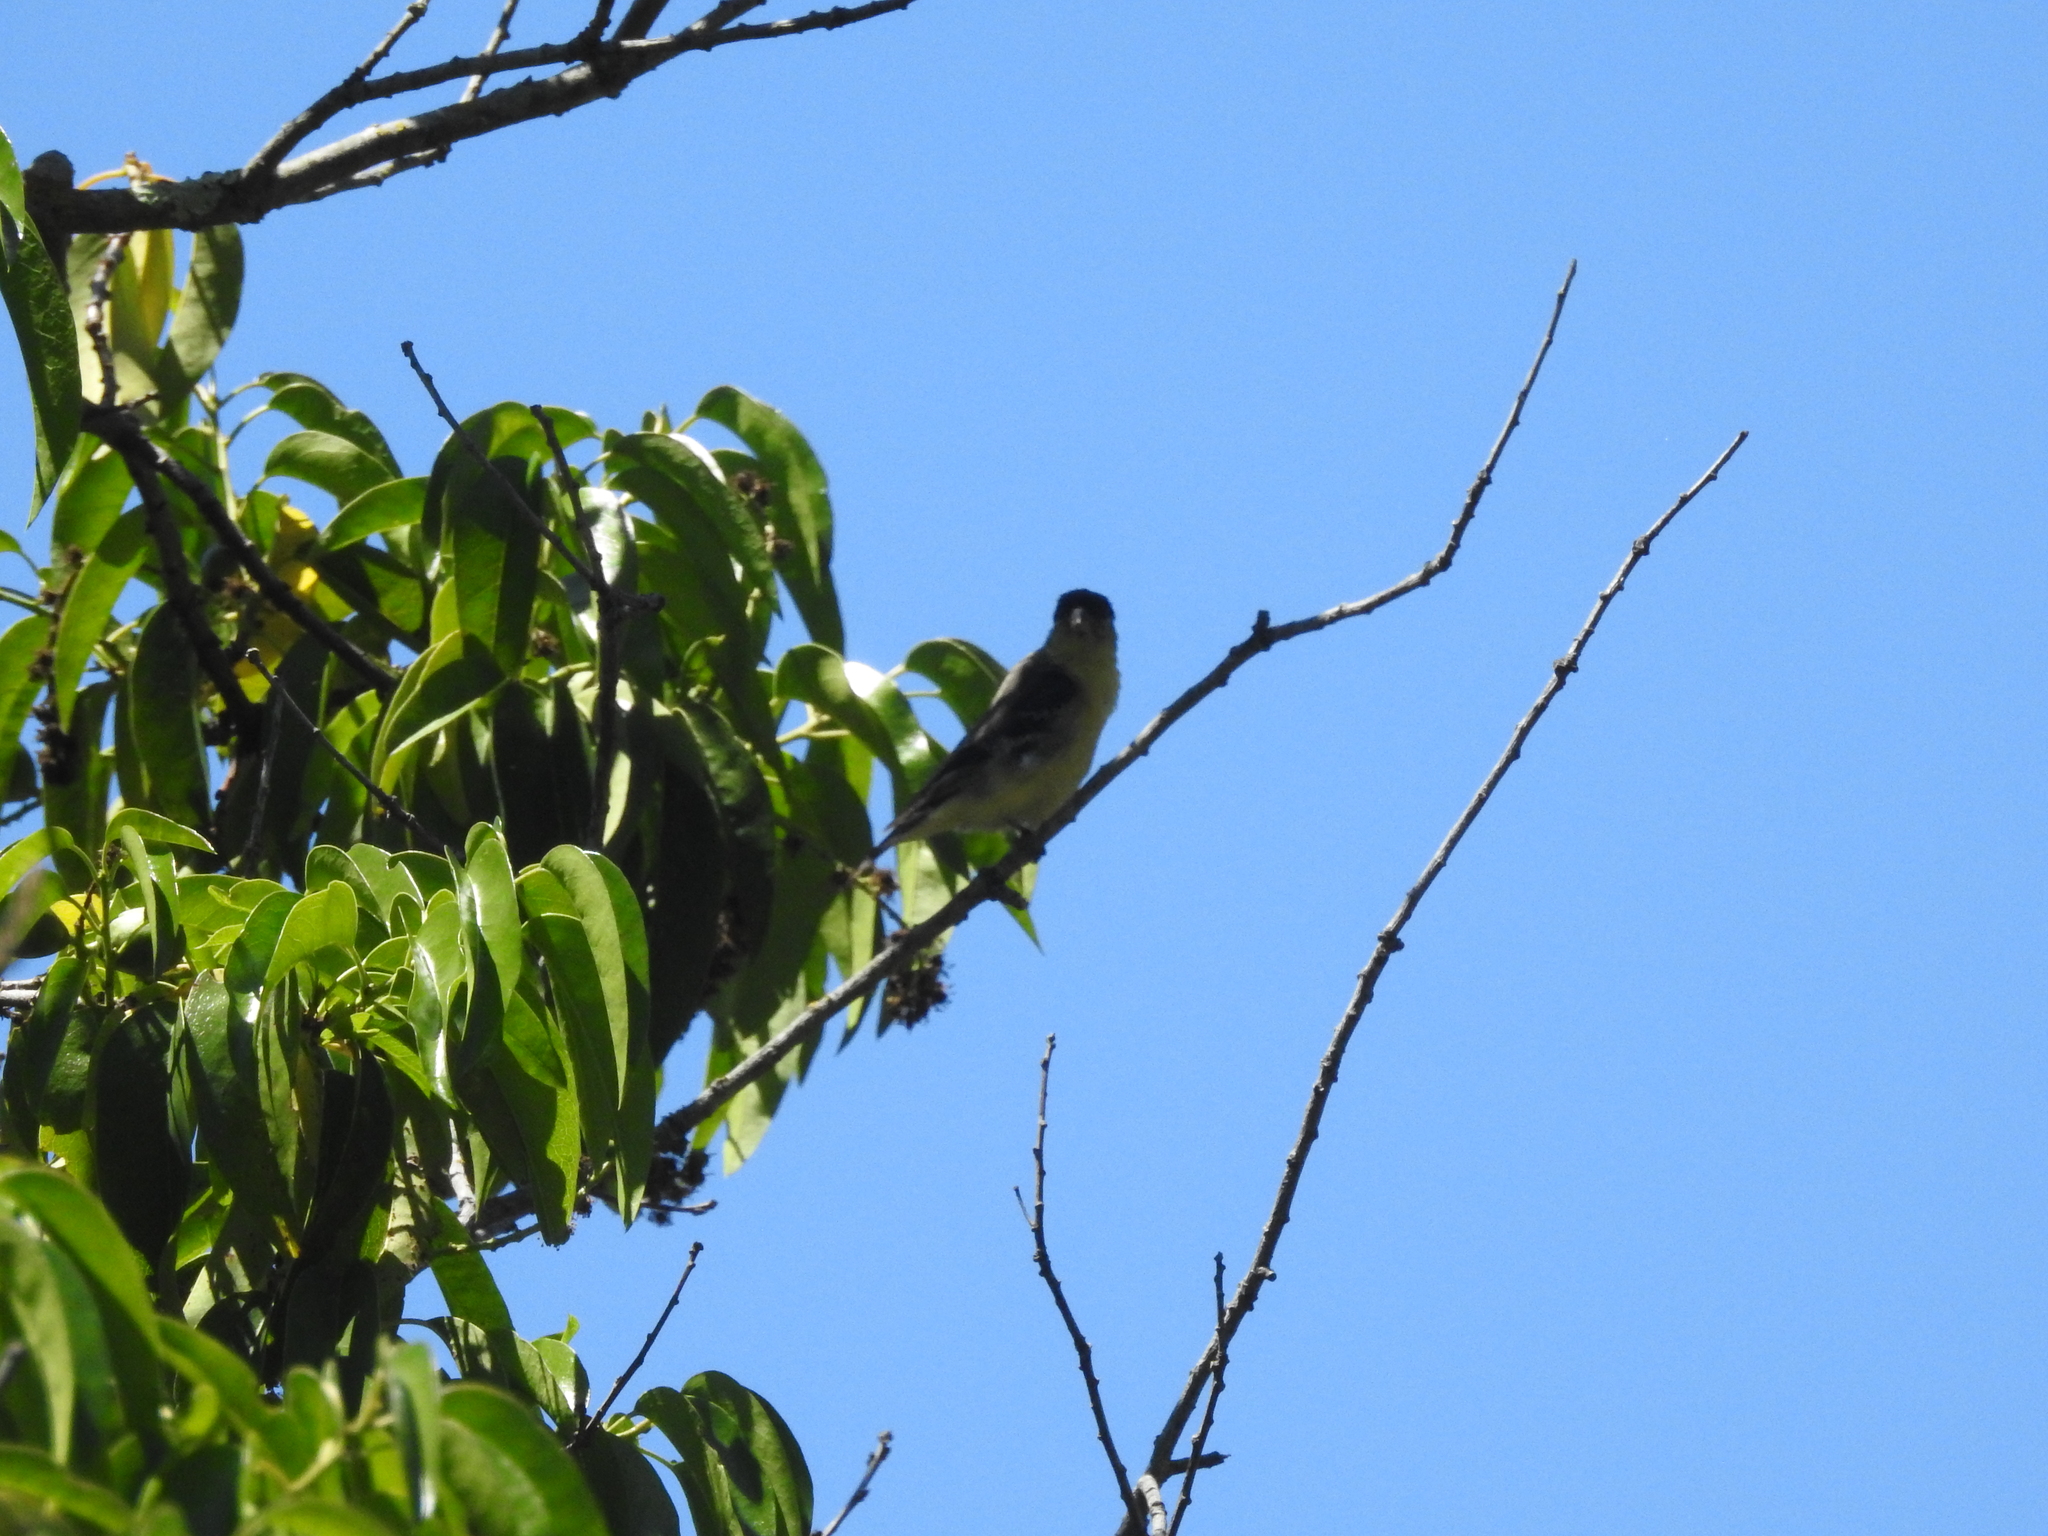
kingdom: Animalia
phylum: Chordata
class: Aves
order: Passeriformes
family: Fringillidae
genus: Spinus
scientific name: Spinus psaltria
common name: Lesser goldfinch
